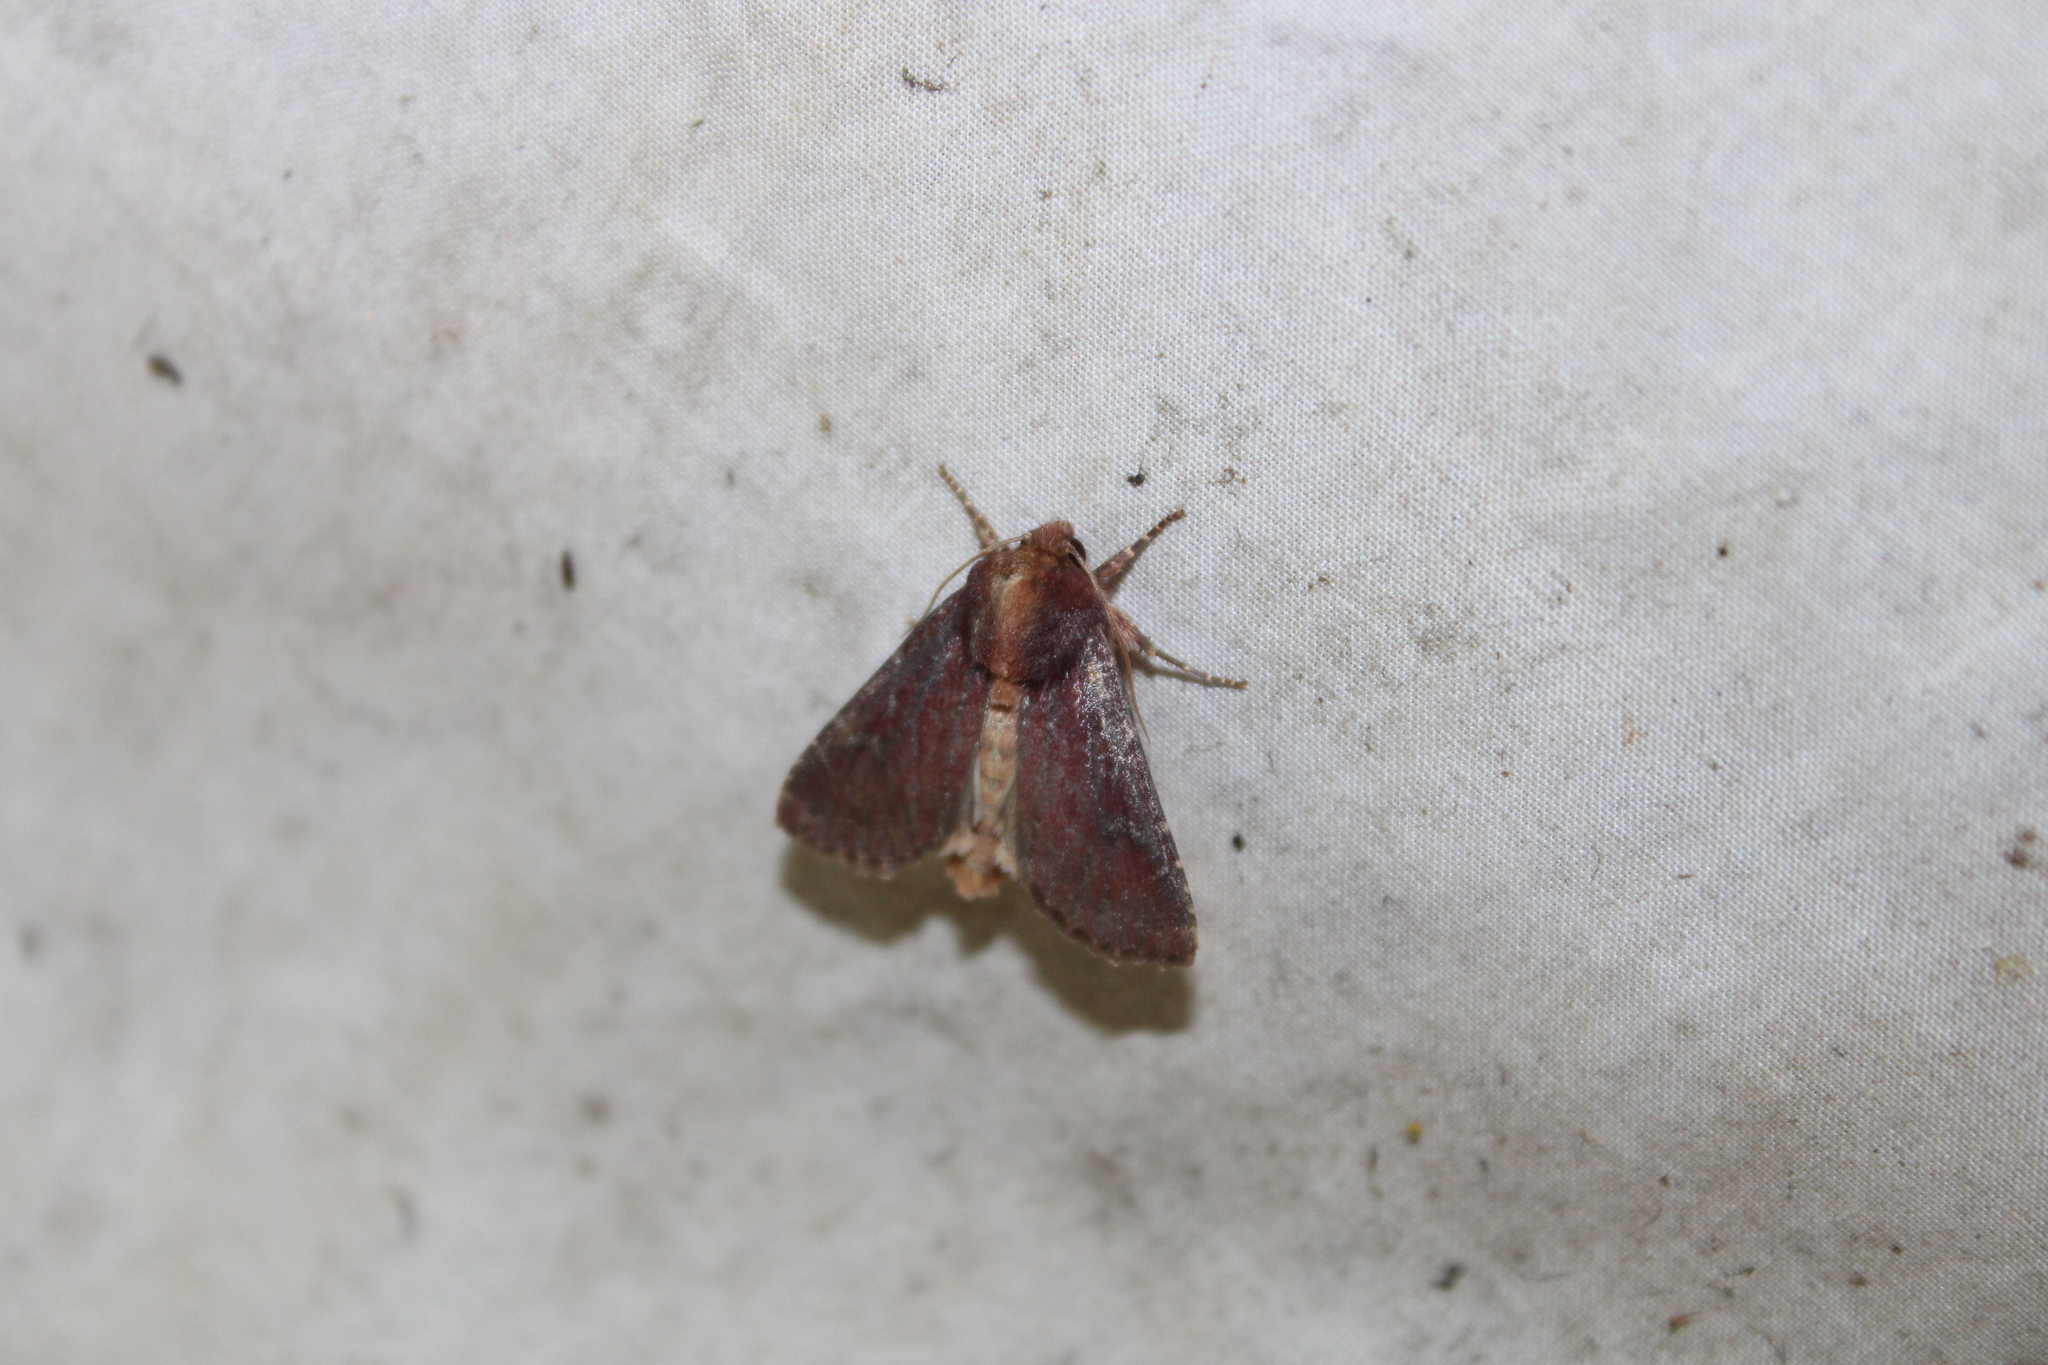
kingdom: Animalia
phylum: Arthropoda
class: Insecta
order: Lepidoptera
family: Noctuidae
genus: Sideridis
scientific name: Sideridis maryx
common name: Maroonwing moth
